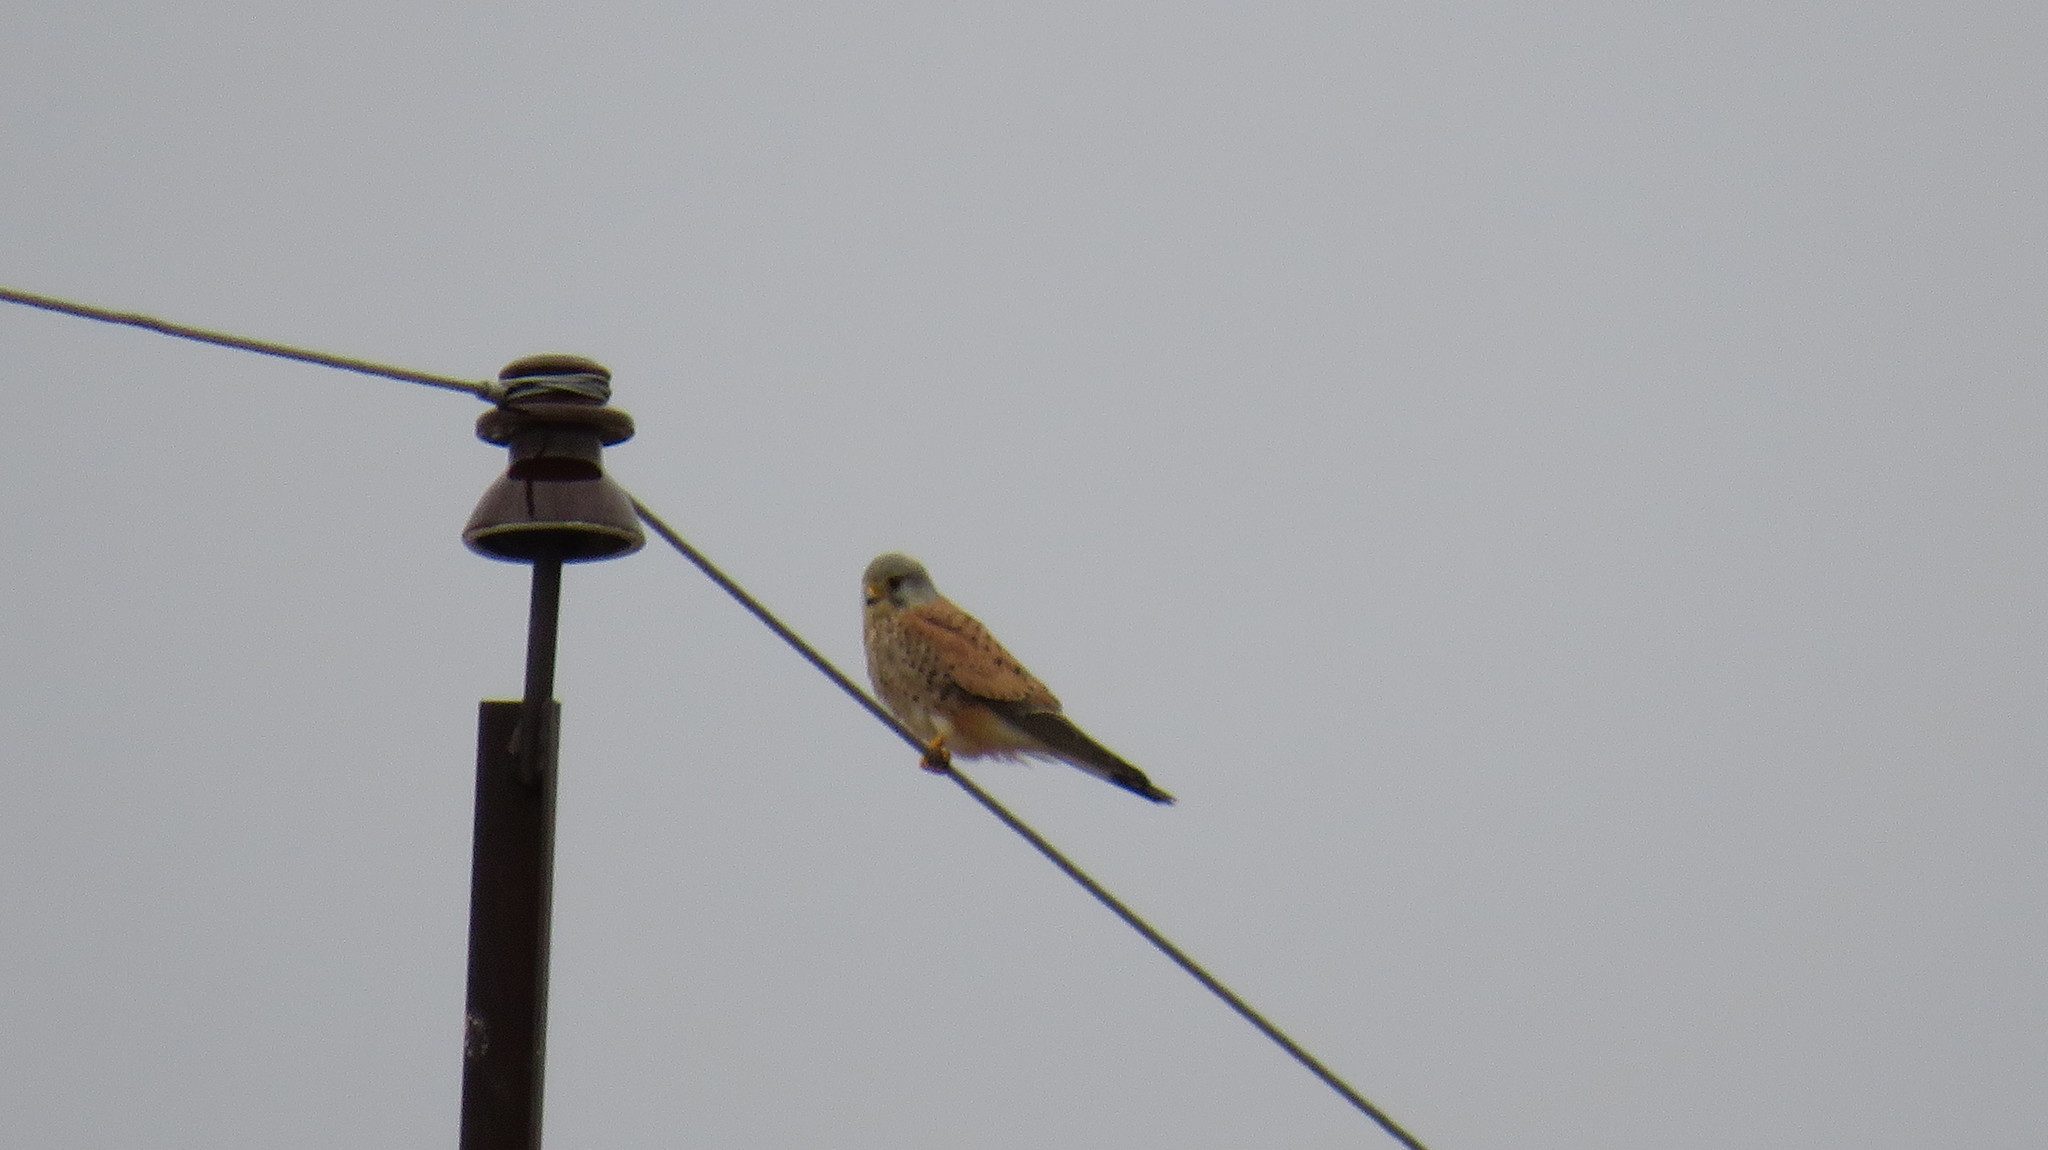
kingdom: Animalia
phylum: Chordata
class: Aves
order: Falconiformes
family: Falconidae
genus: Falco
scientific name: Falco tinnunculus
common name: Common kestrel
